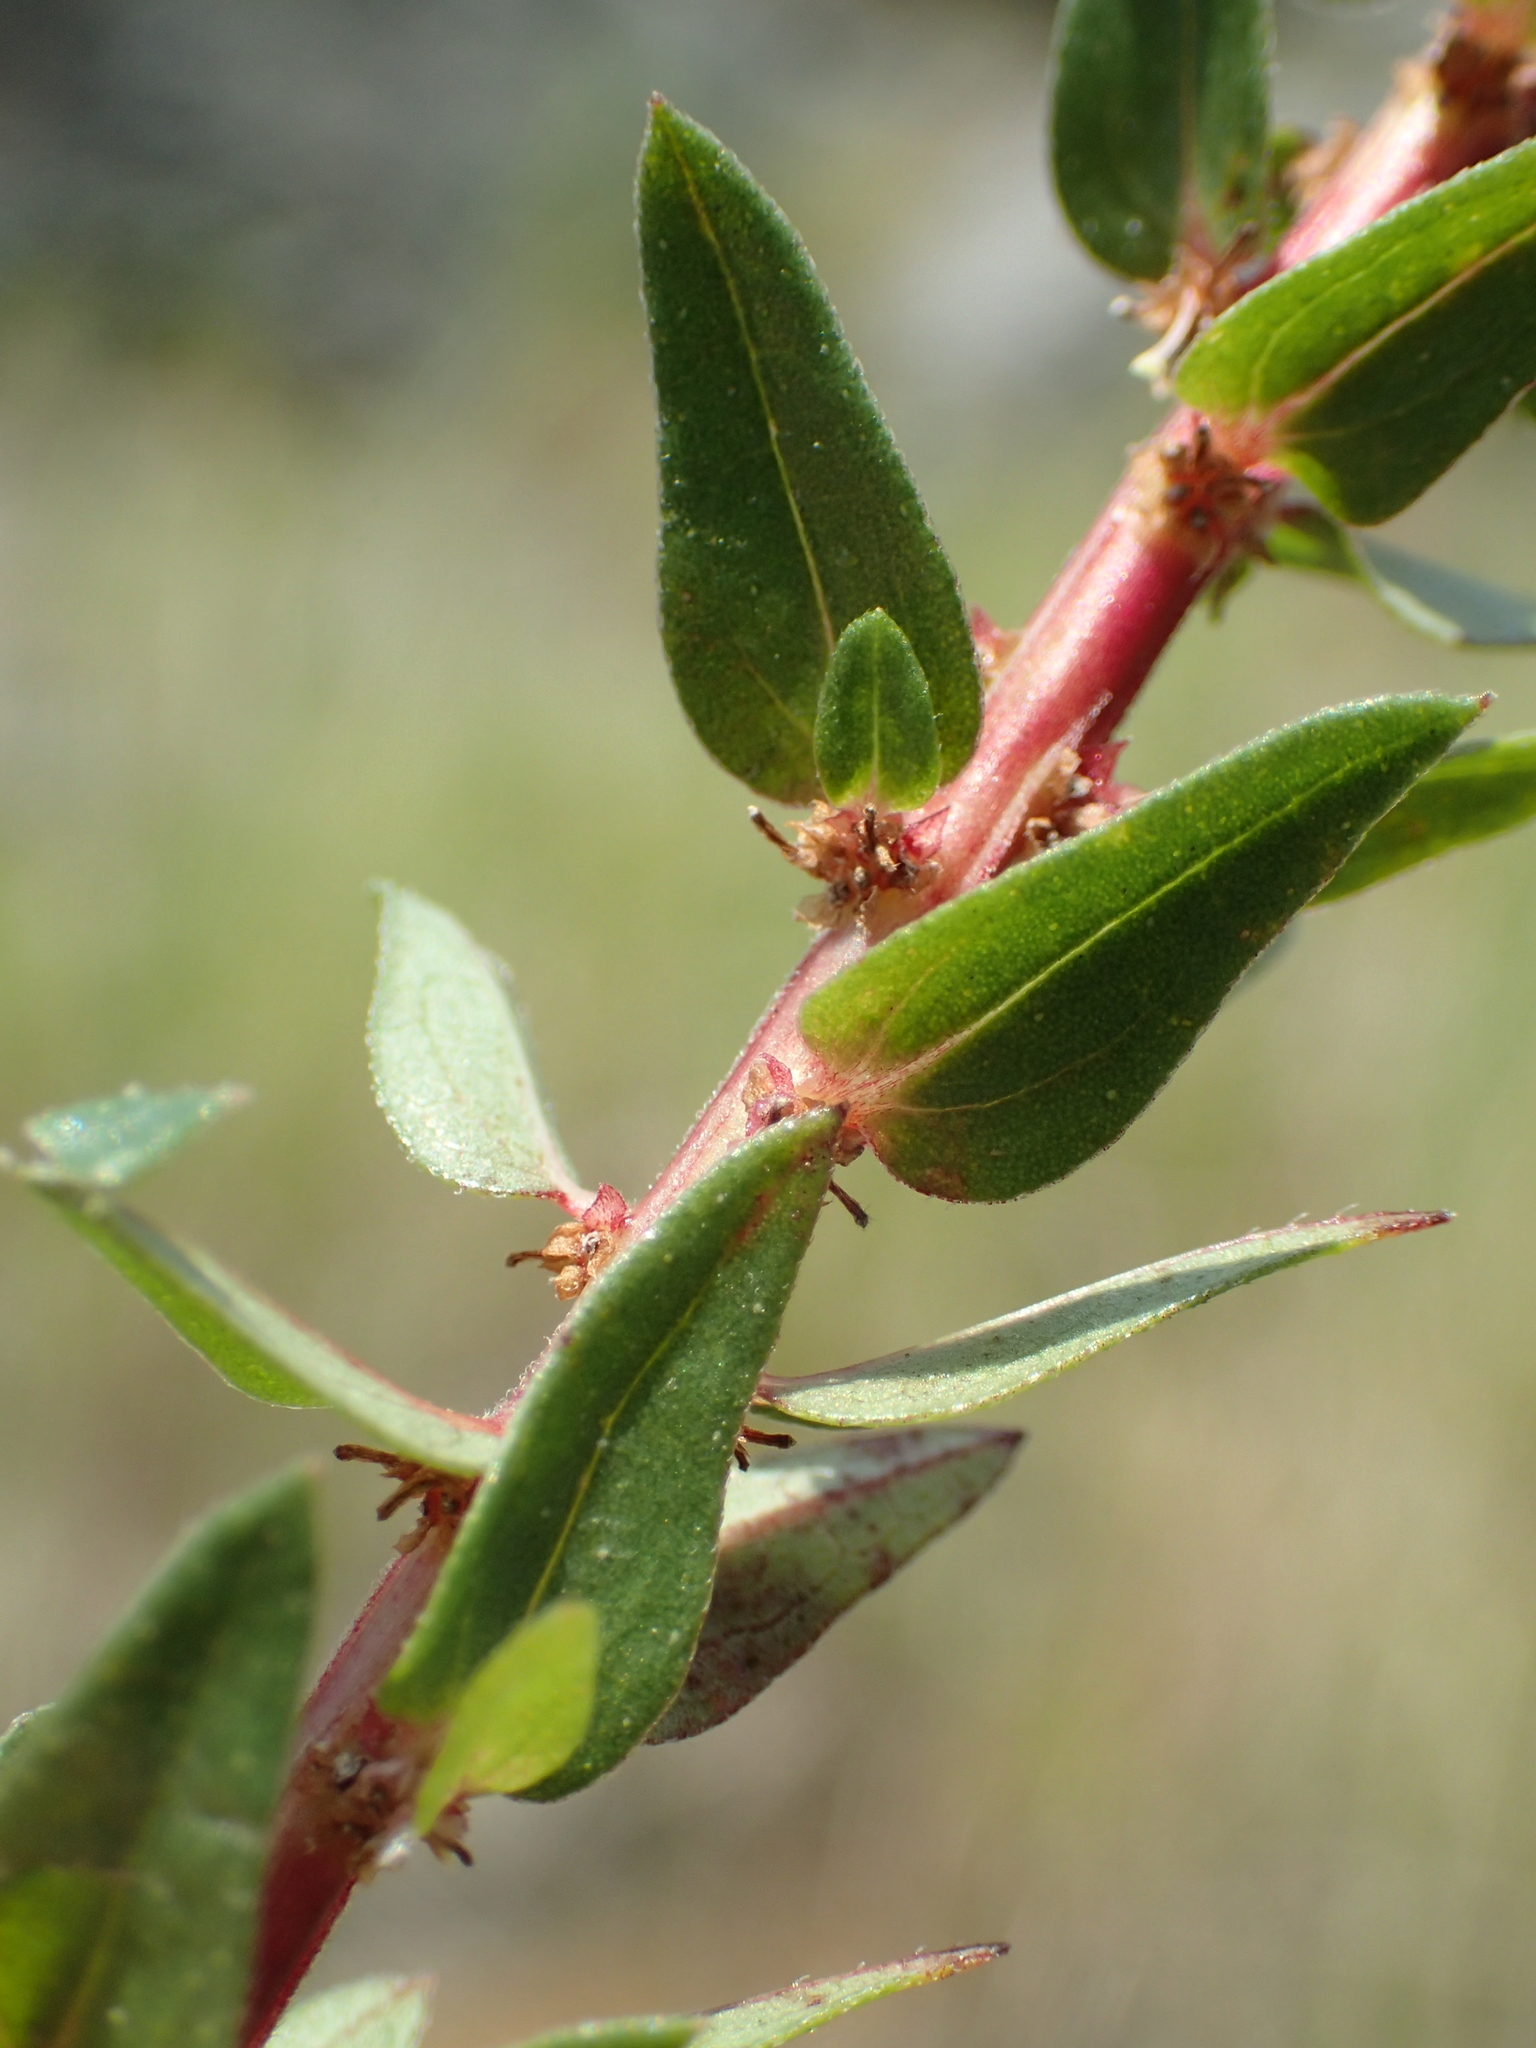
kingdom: Plantae
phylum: Tracheophyta
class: Magnoliopsida
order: Rosales
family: Urticaceae
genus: Gonostegia
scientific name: Gonostegia pentandra
